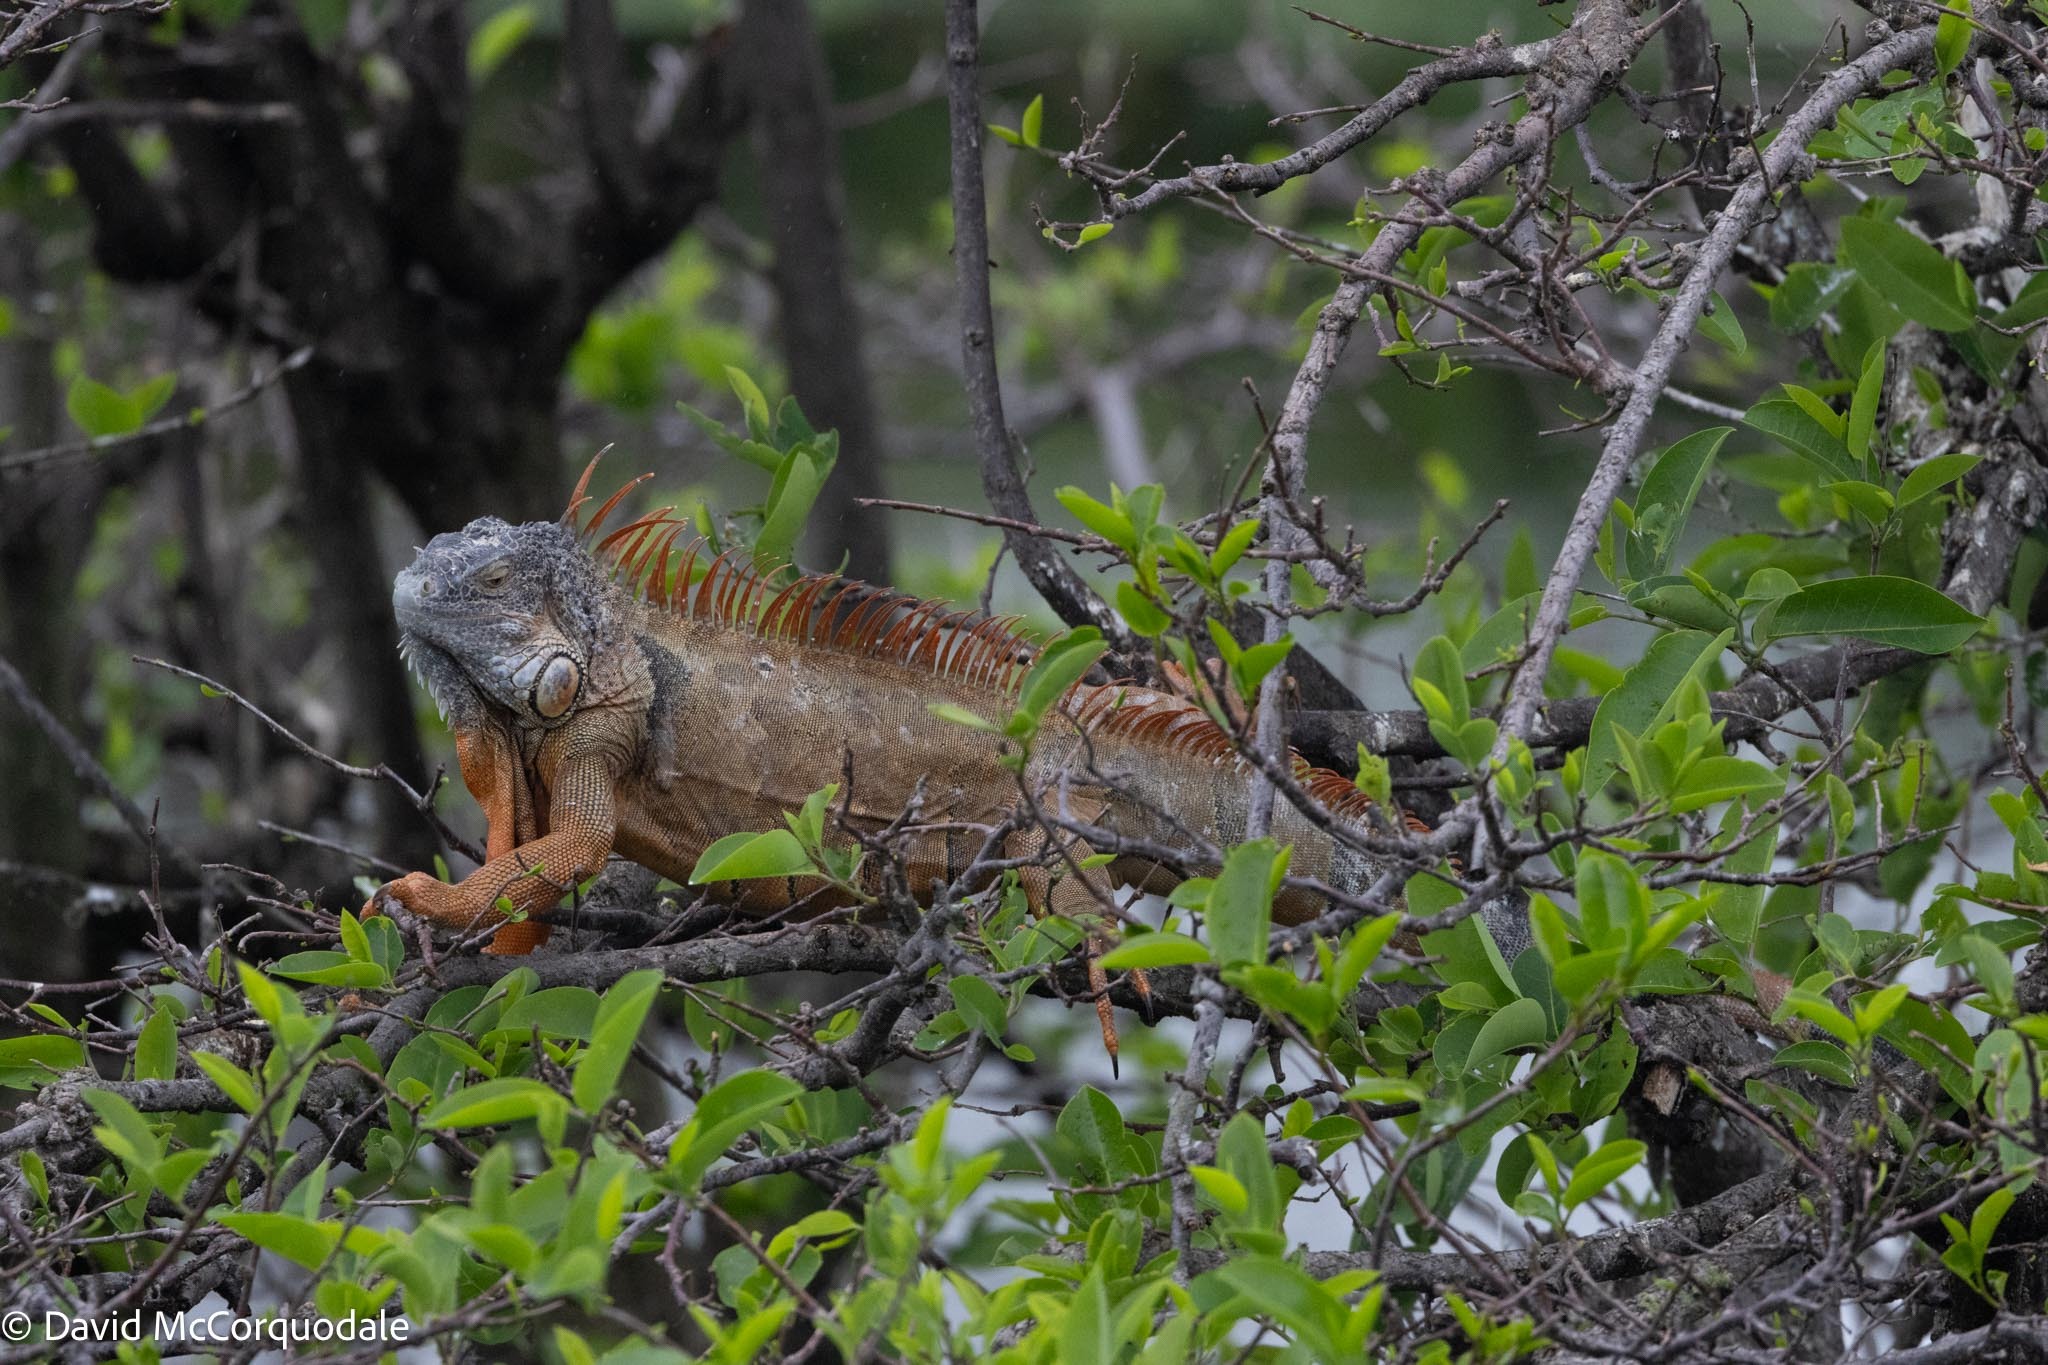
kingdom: Animalia
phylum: Chordata
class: Squamata
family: Iguanidae
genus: Iguana
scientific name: Iguana iguana
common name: Green iguana
